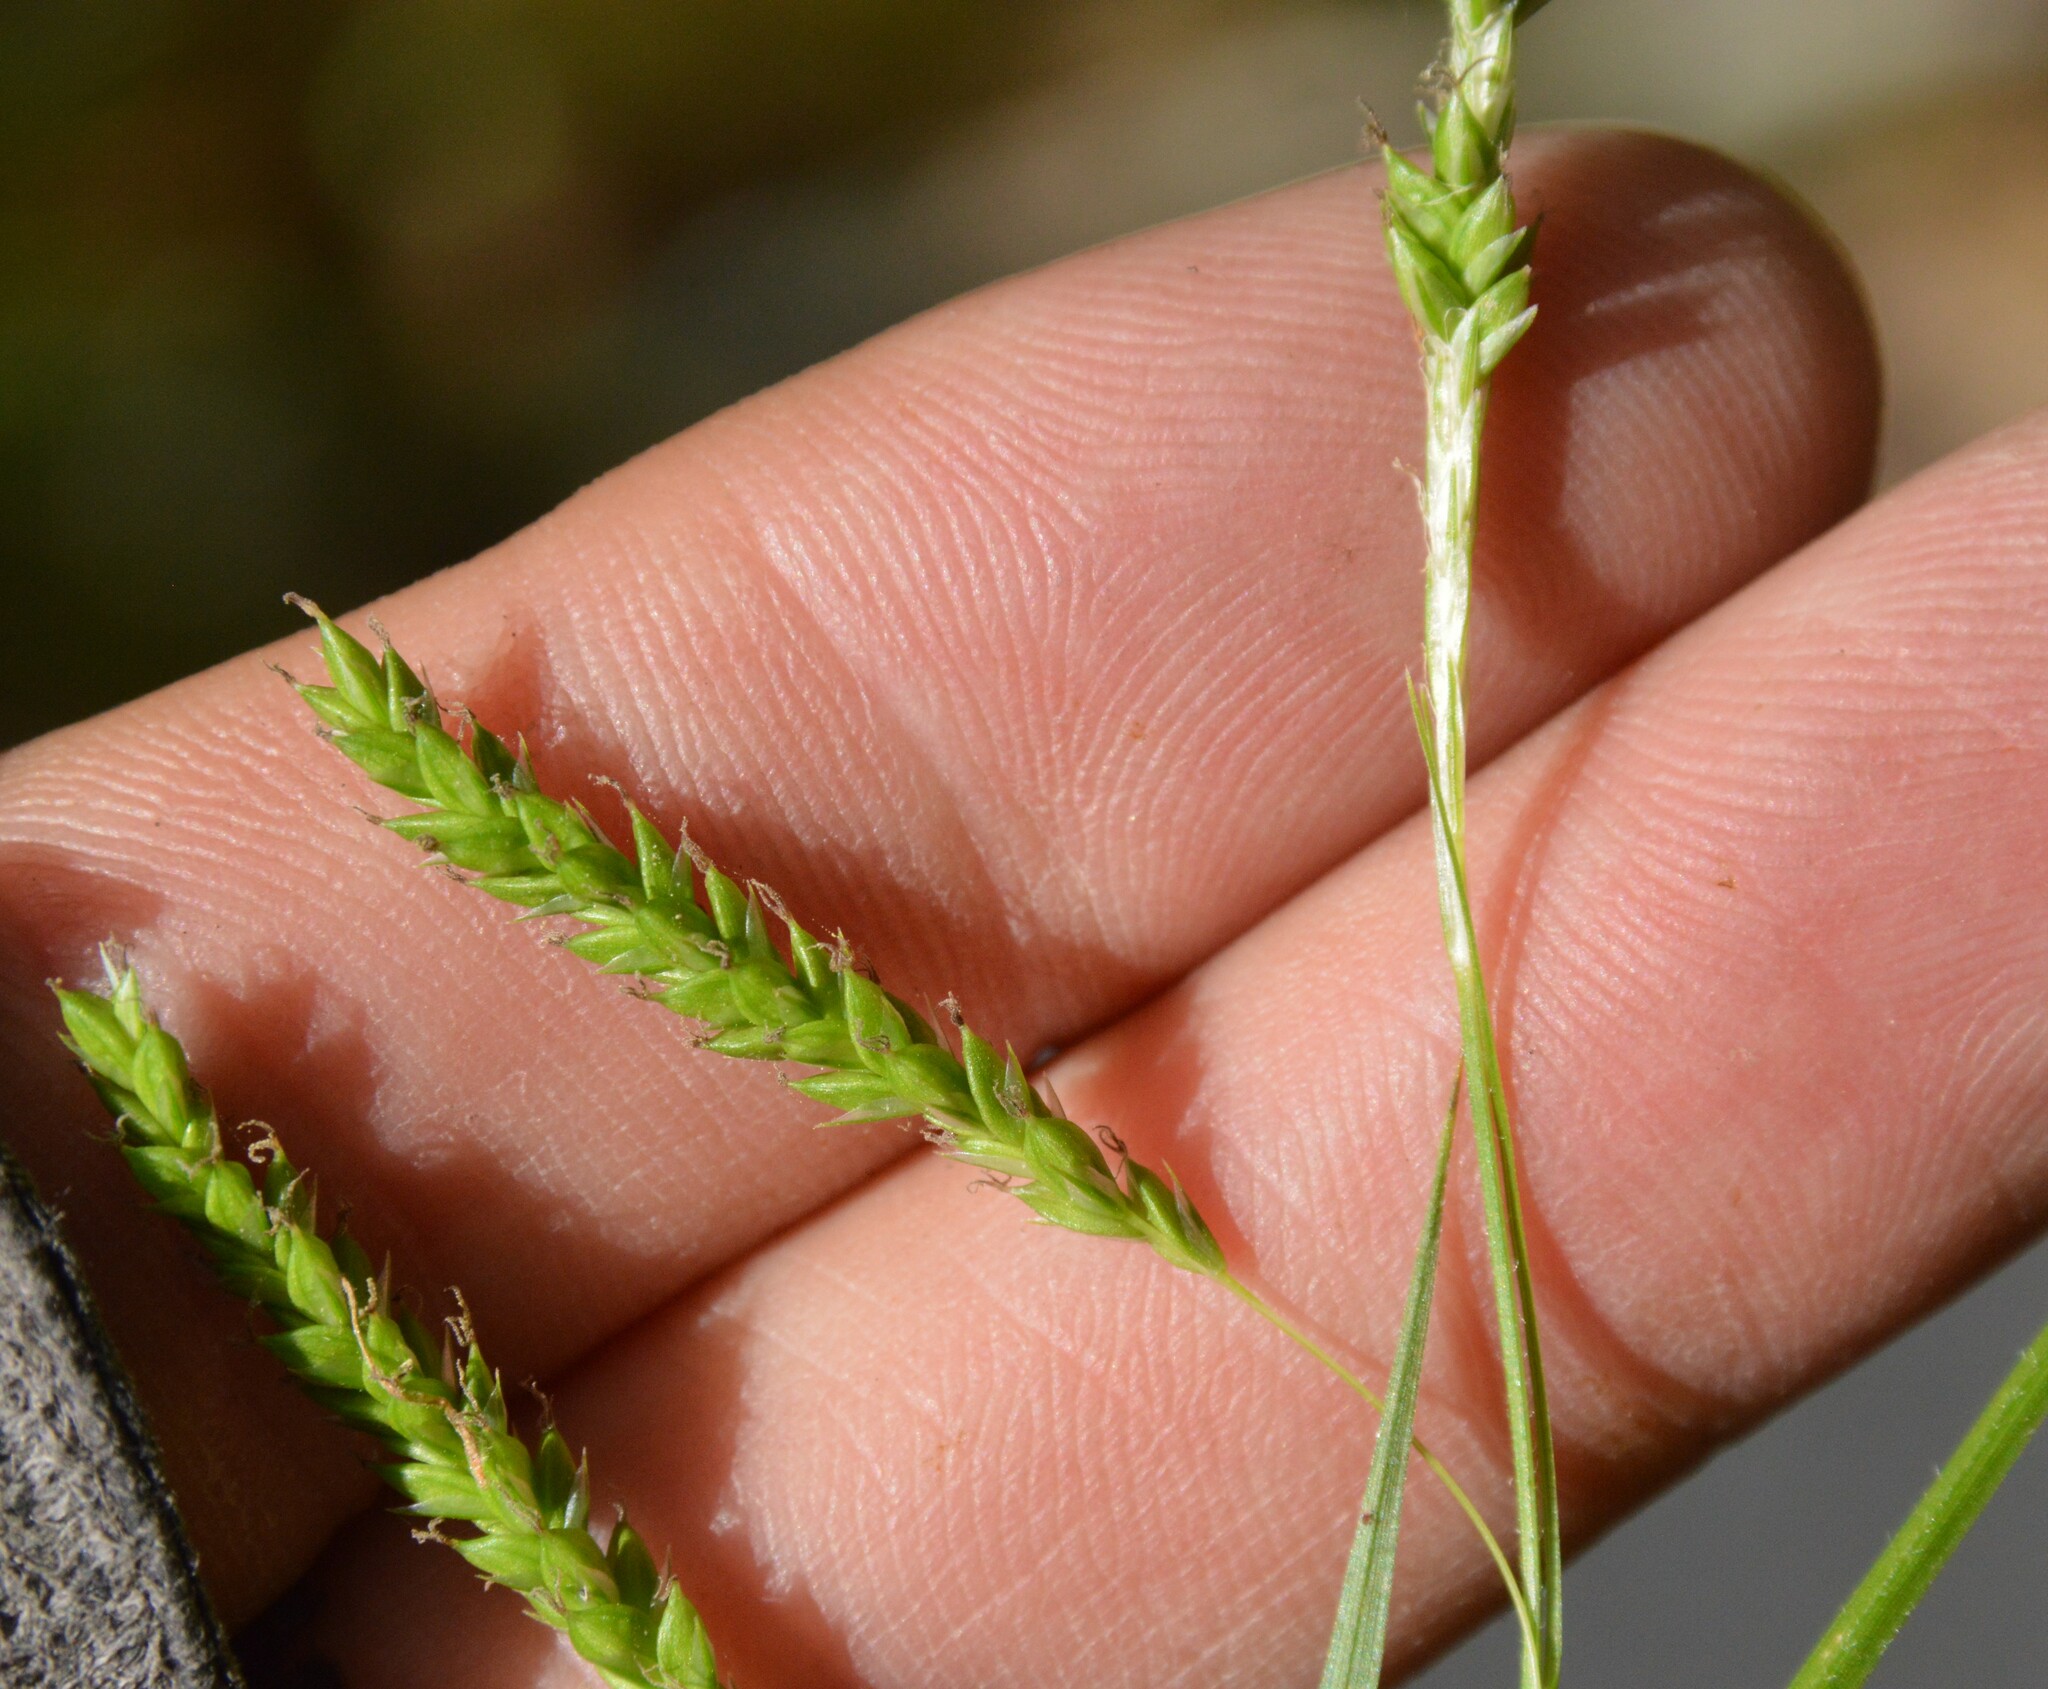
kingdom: Plantae
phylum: Tracheophyta
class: Liliopsida
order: Poales
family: Cyperaceae
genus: Carex
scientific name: Carex oxylepis
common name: Sharpscale sedge
